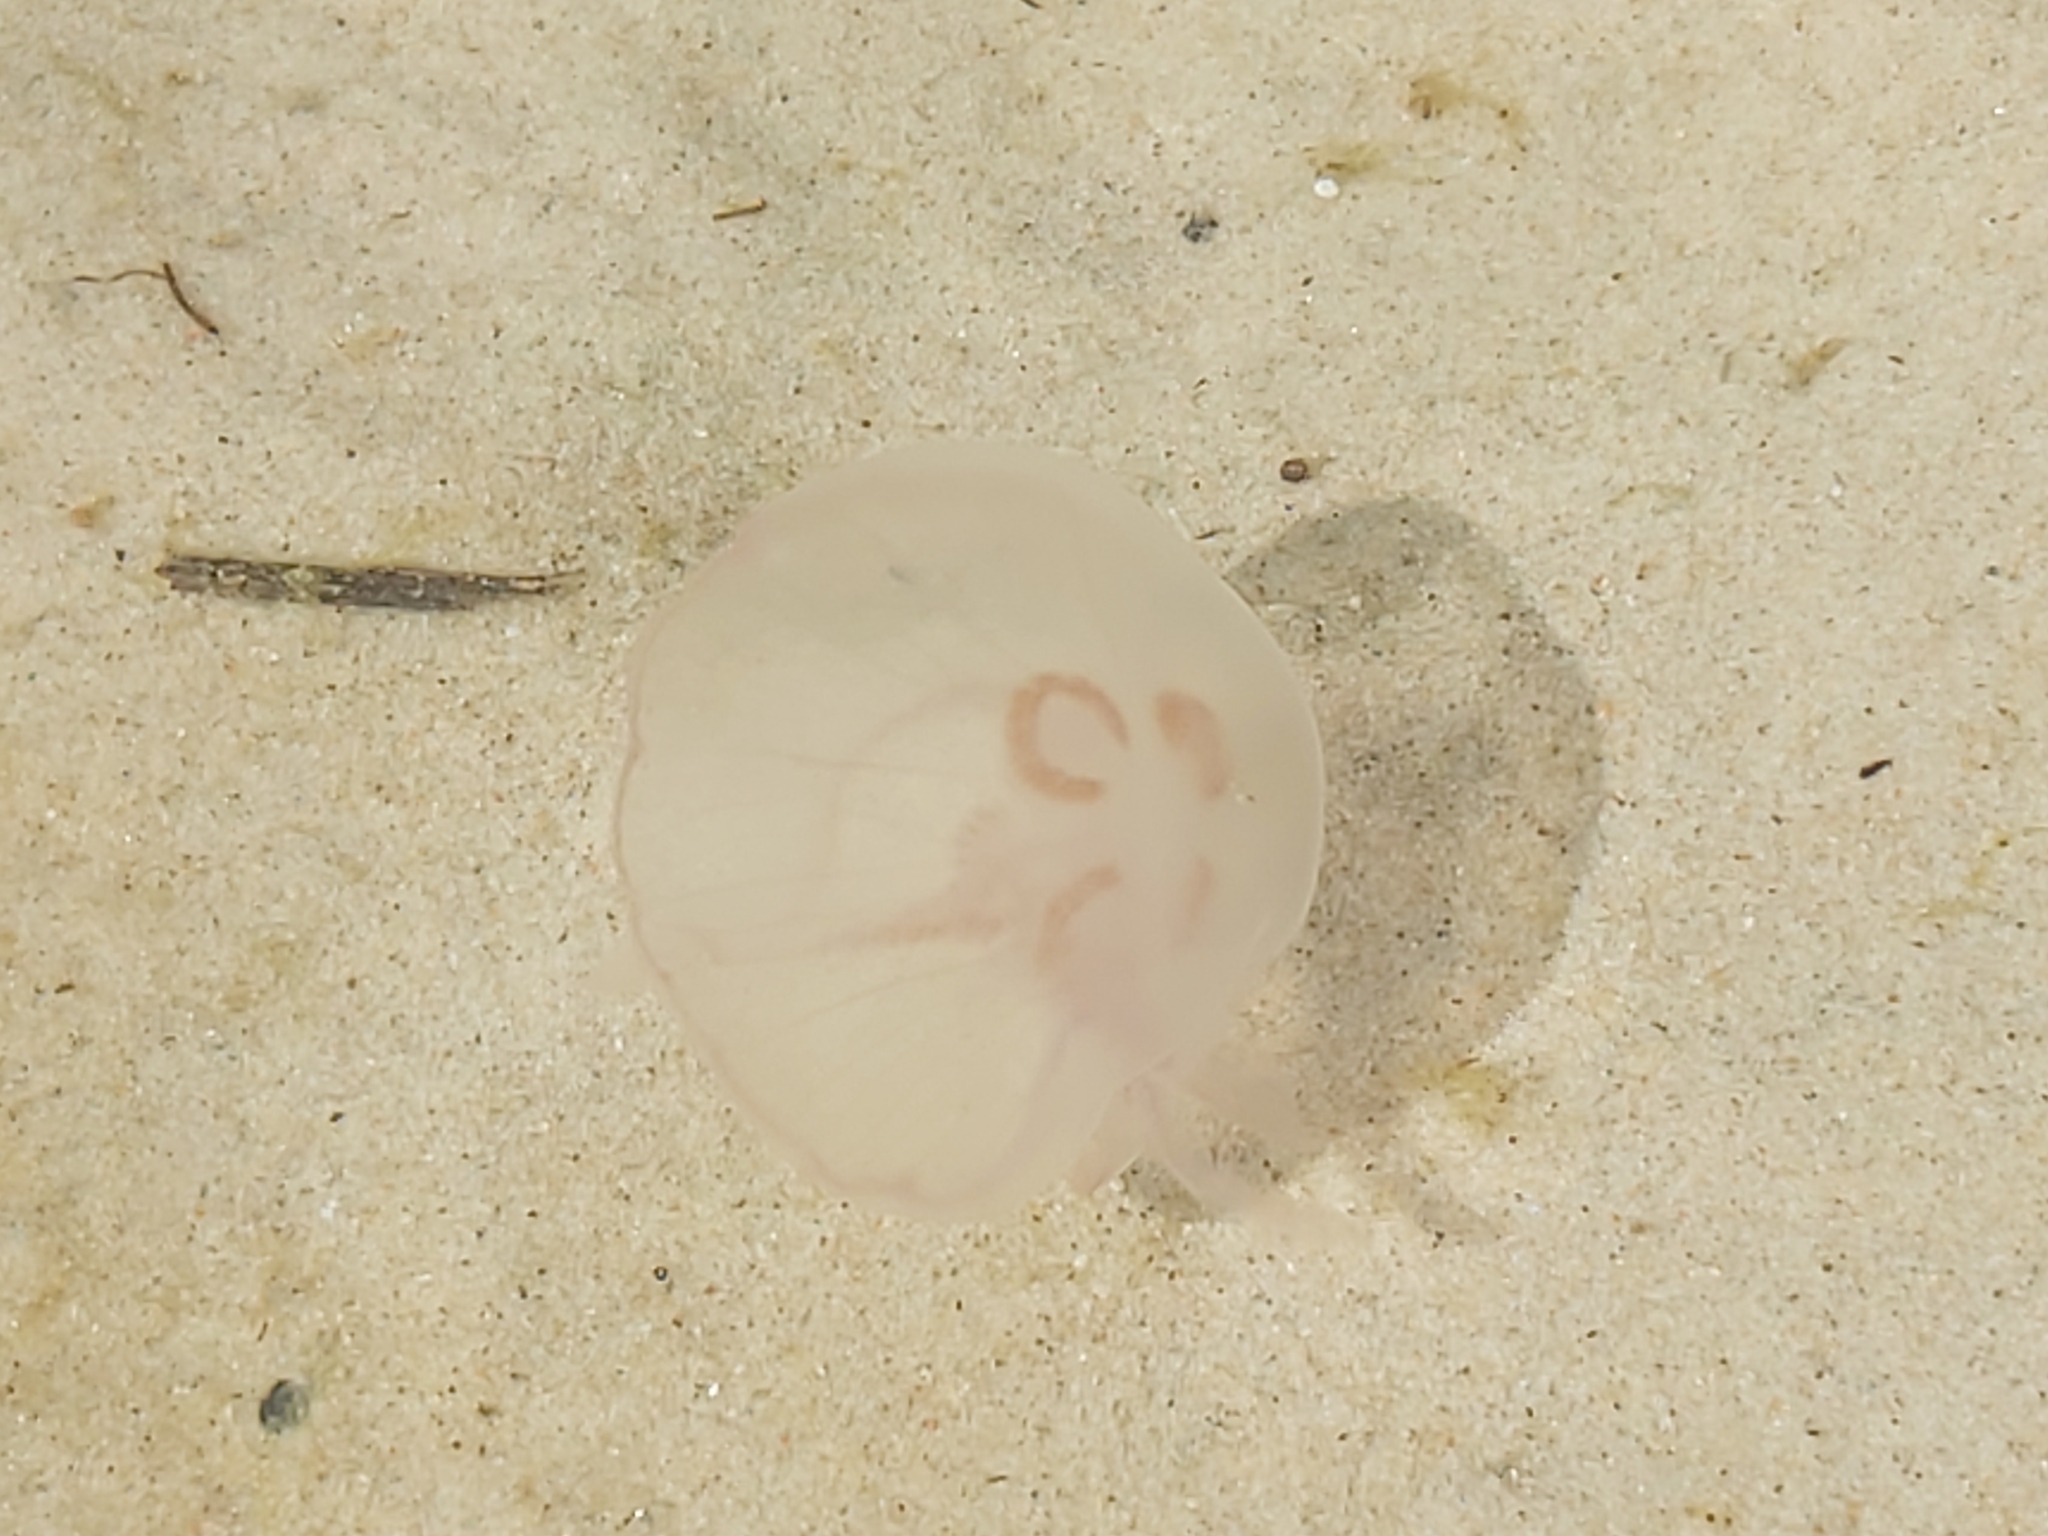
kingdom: Animalia
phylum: Cnidaria
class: Scyphozoa
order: Semaeostomeae
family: Ulmaridae
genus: Aurelia
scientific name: Aurelia aurita
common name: Moon jellyfish
